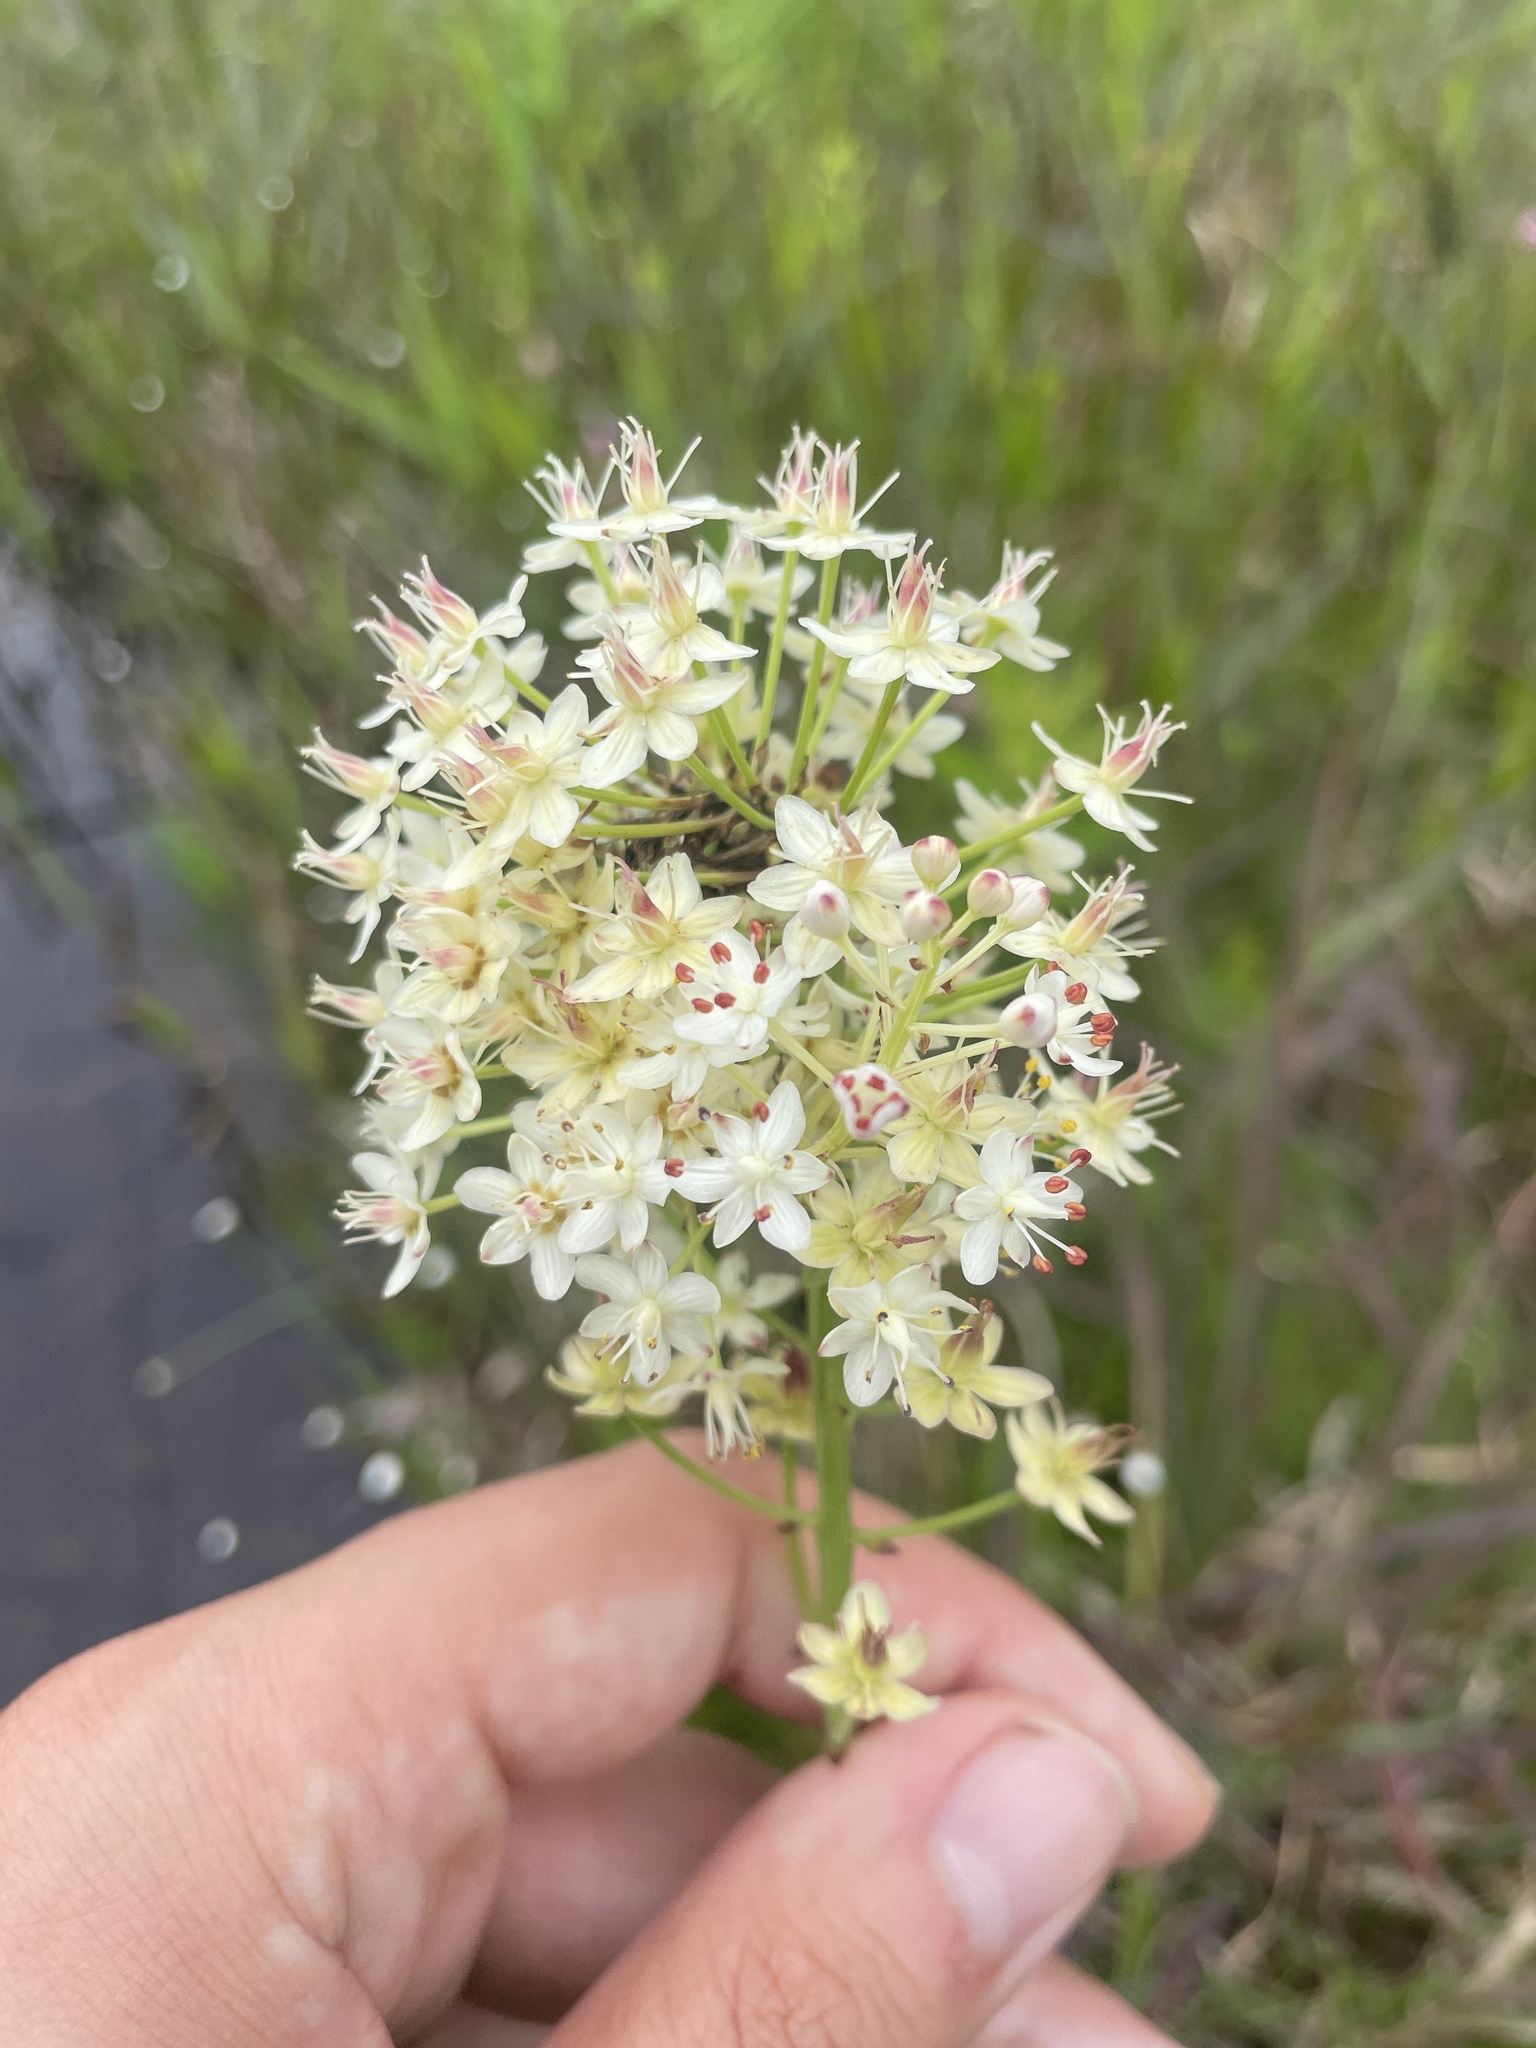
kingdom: Plantae
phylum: Tracheophyta
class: Liliopsida
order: Liliales
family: Melanthiaceae
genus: Stenanthium
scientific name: Stenanthium densum
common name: Crow-poison
